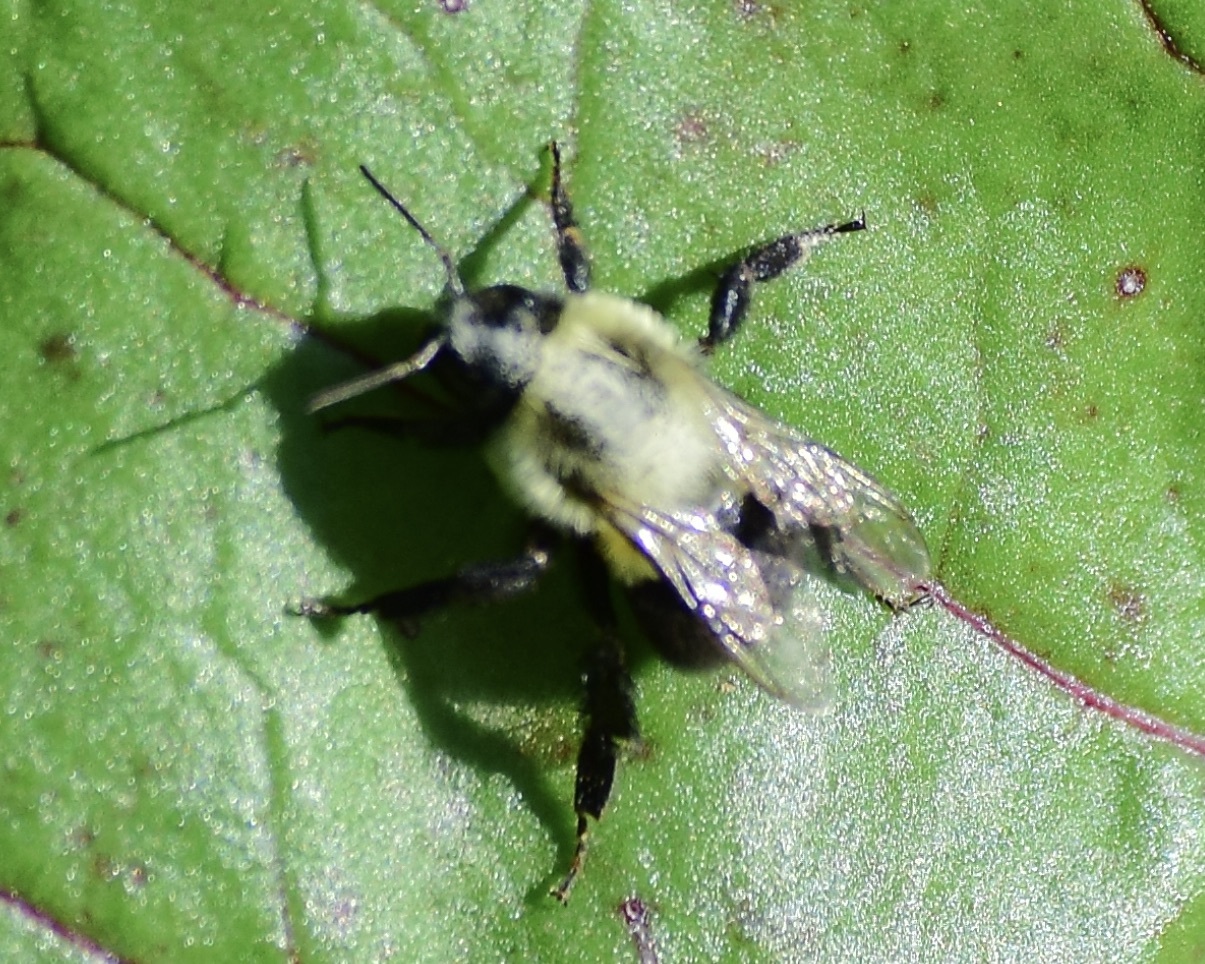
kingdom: Animalia
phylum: Arthropoda
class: Insecta
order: Hymenoptera
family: Apidae
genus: Bombus
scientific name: Bombus impatiens
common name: Common eastern bumble bee
